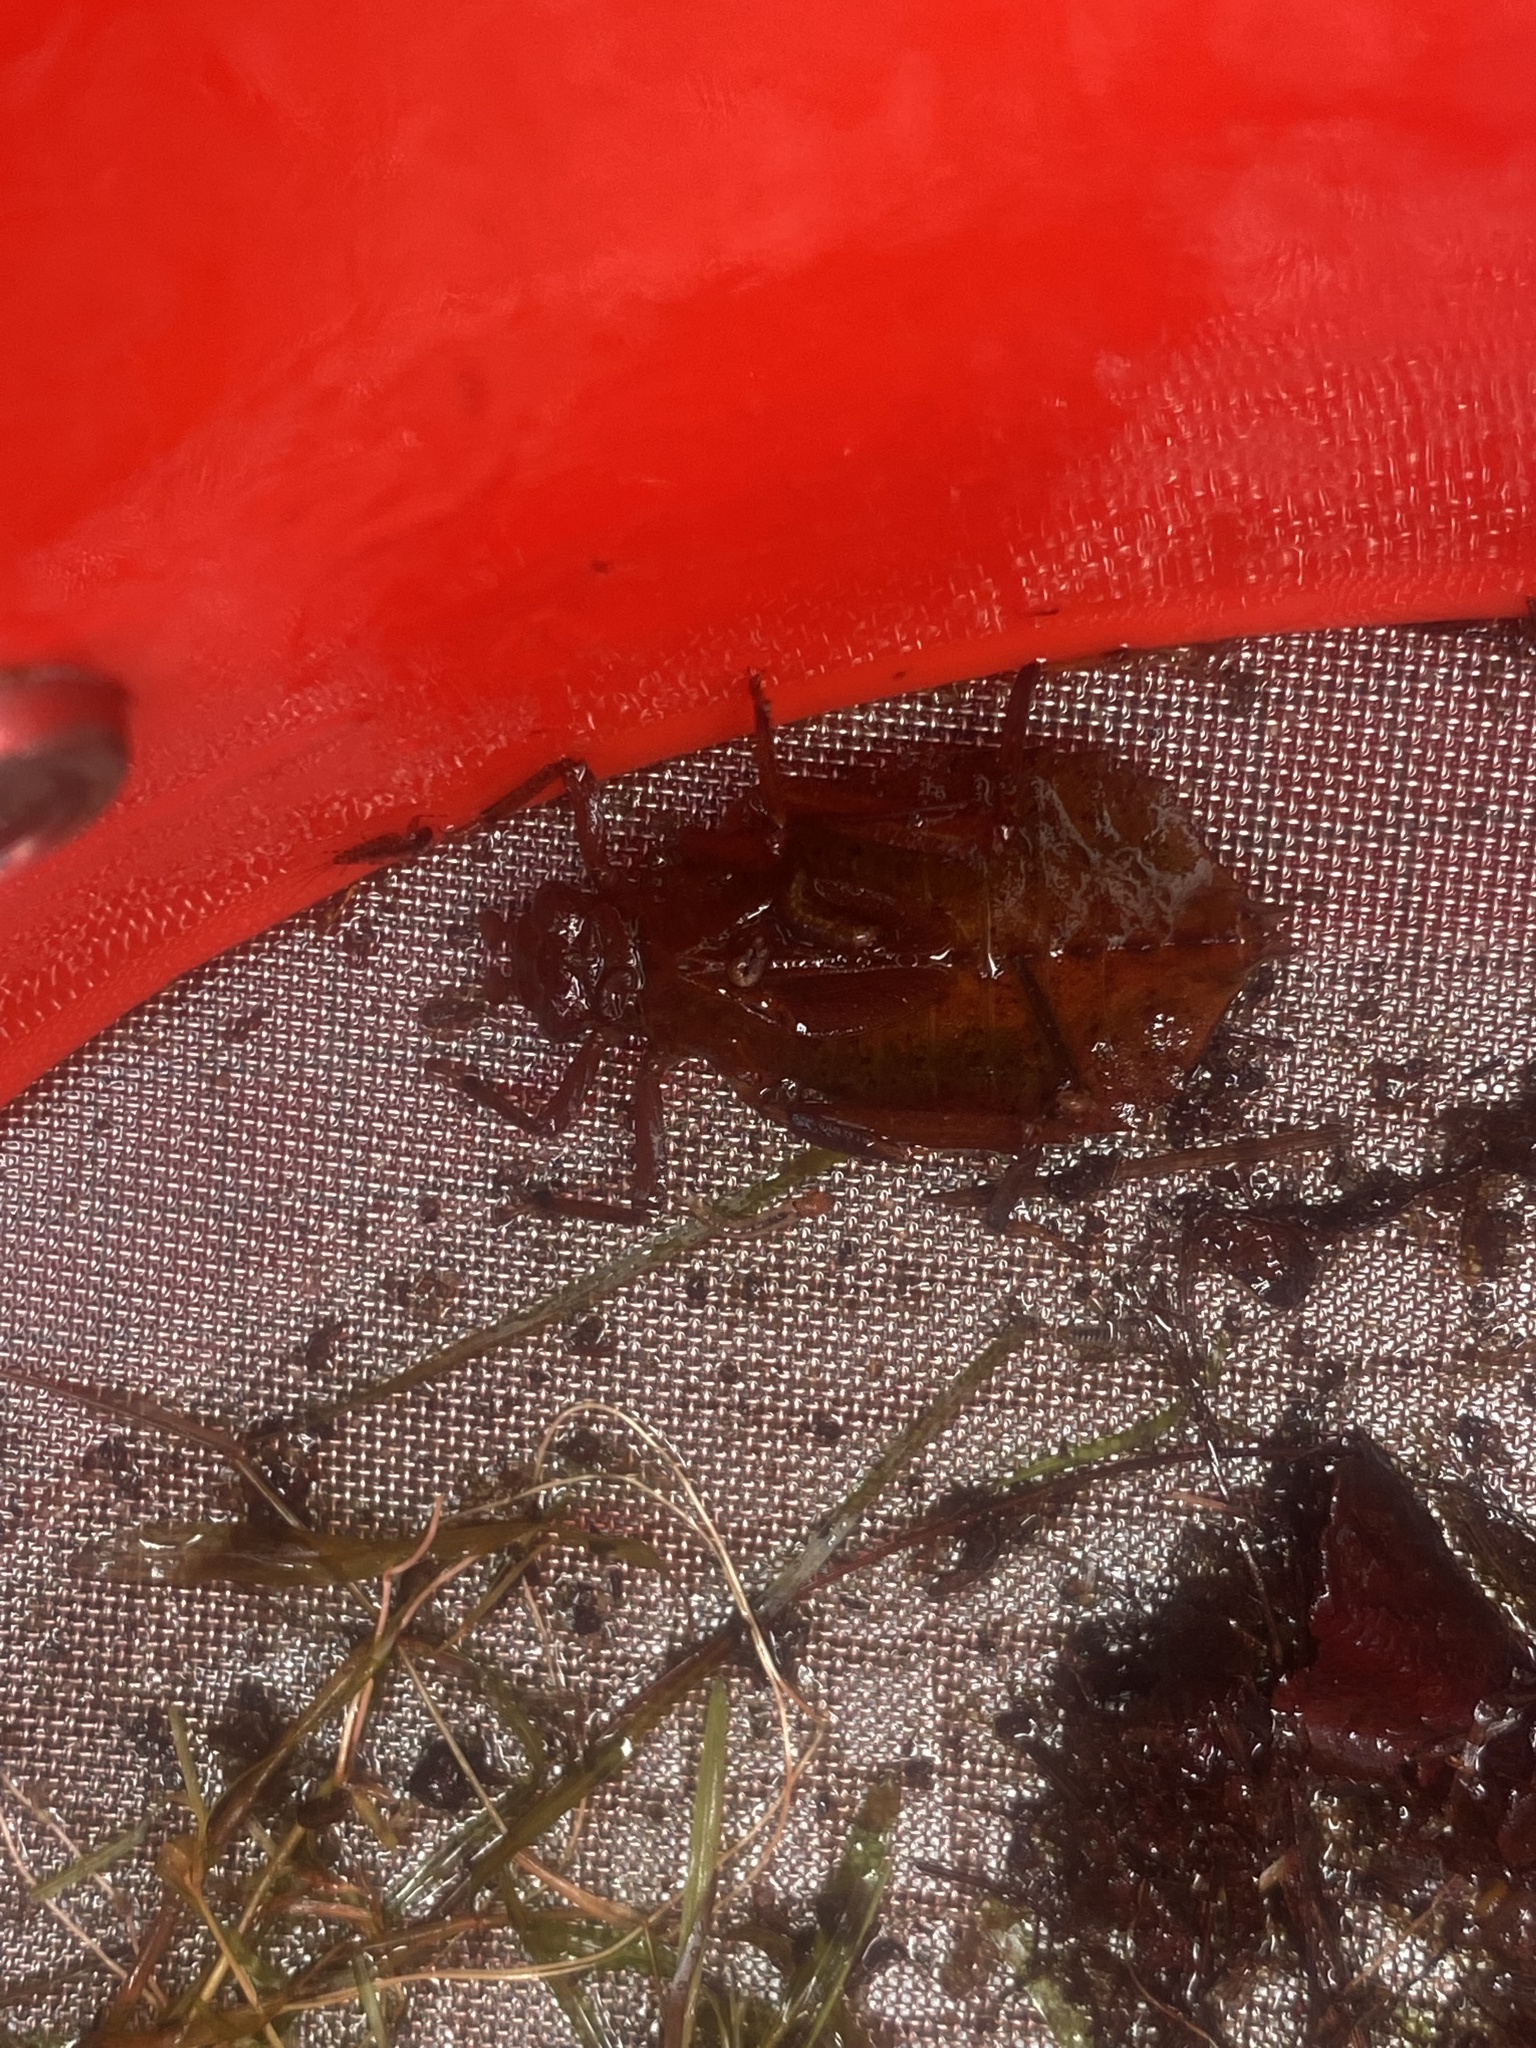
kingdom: Animalia
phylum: Arthropoda
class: Insecta
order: Odonata
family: Gomphidae
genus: Hagenius
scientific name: Hagenius brevistylus
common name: Dragonhunter
